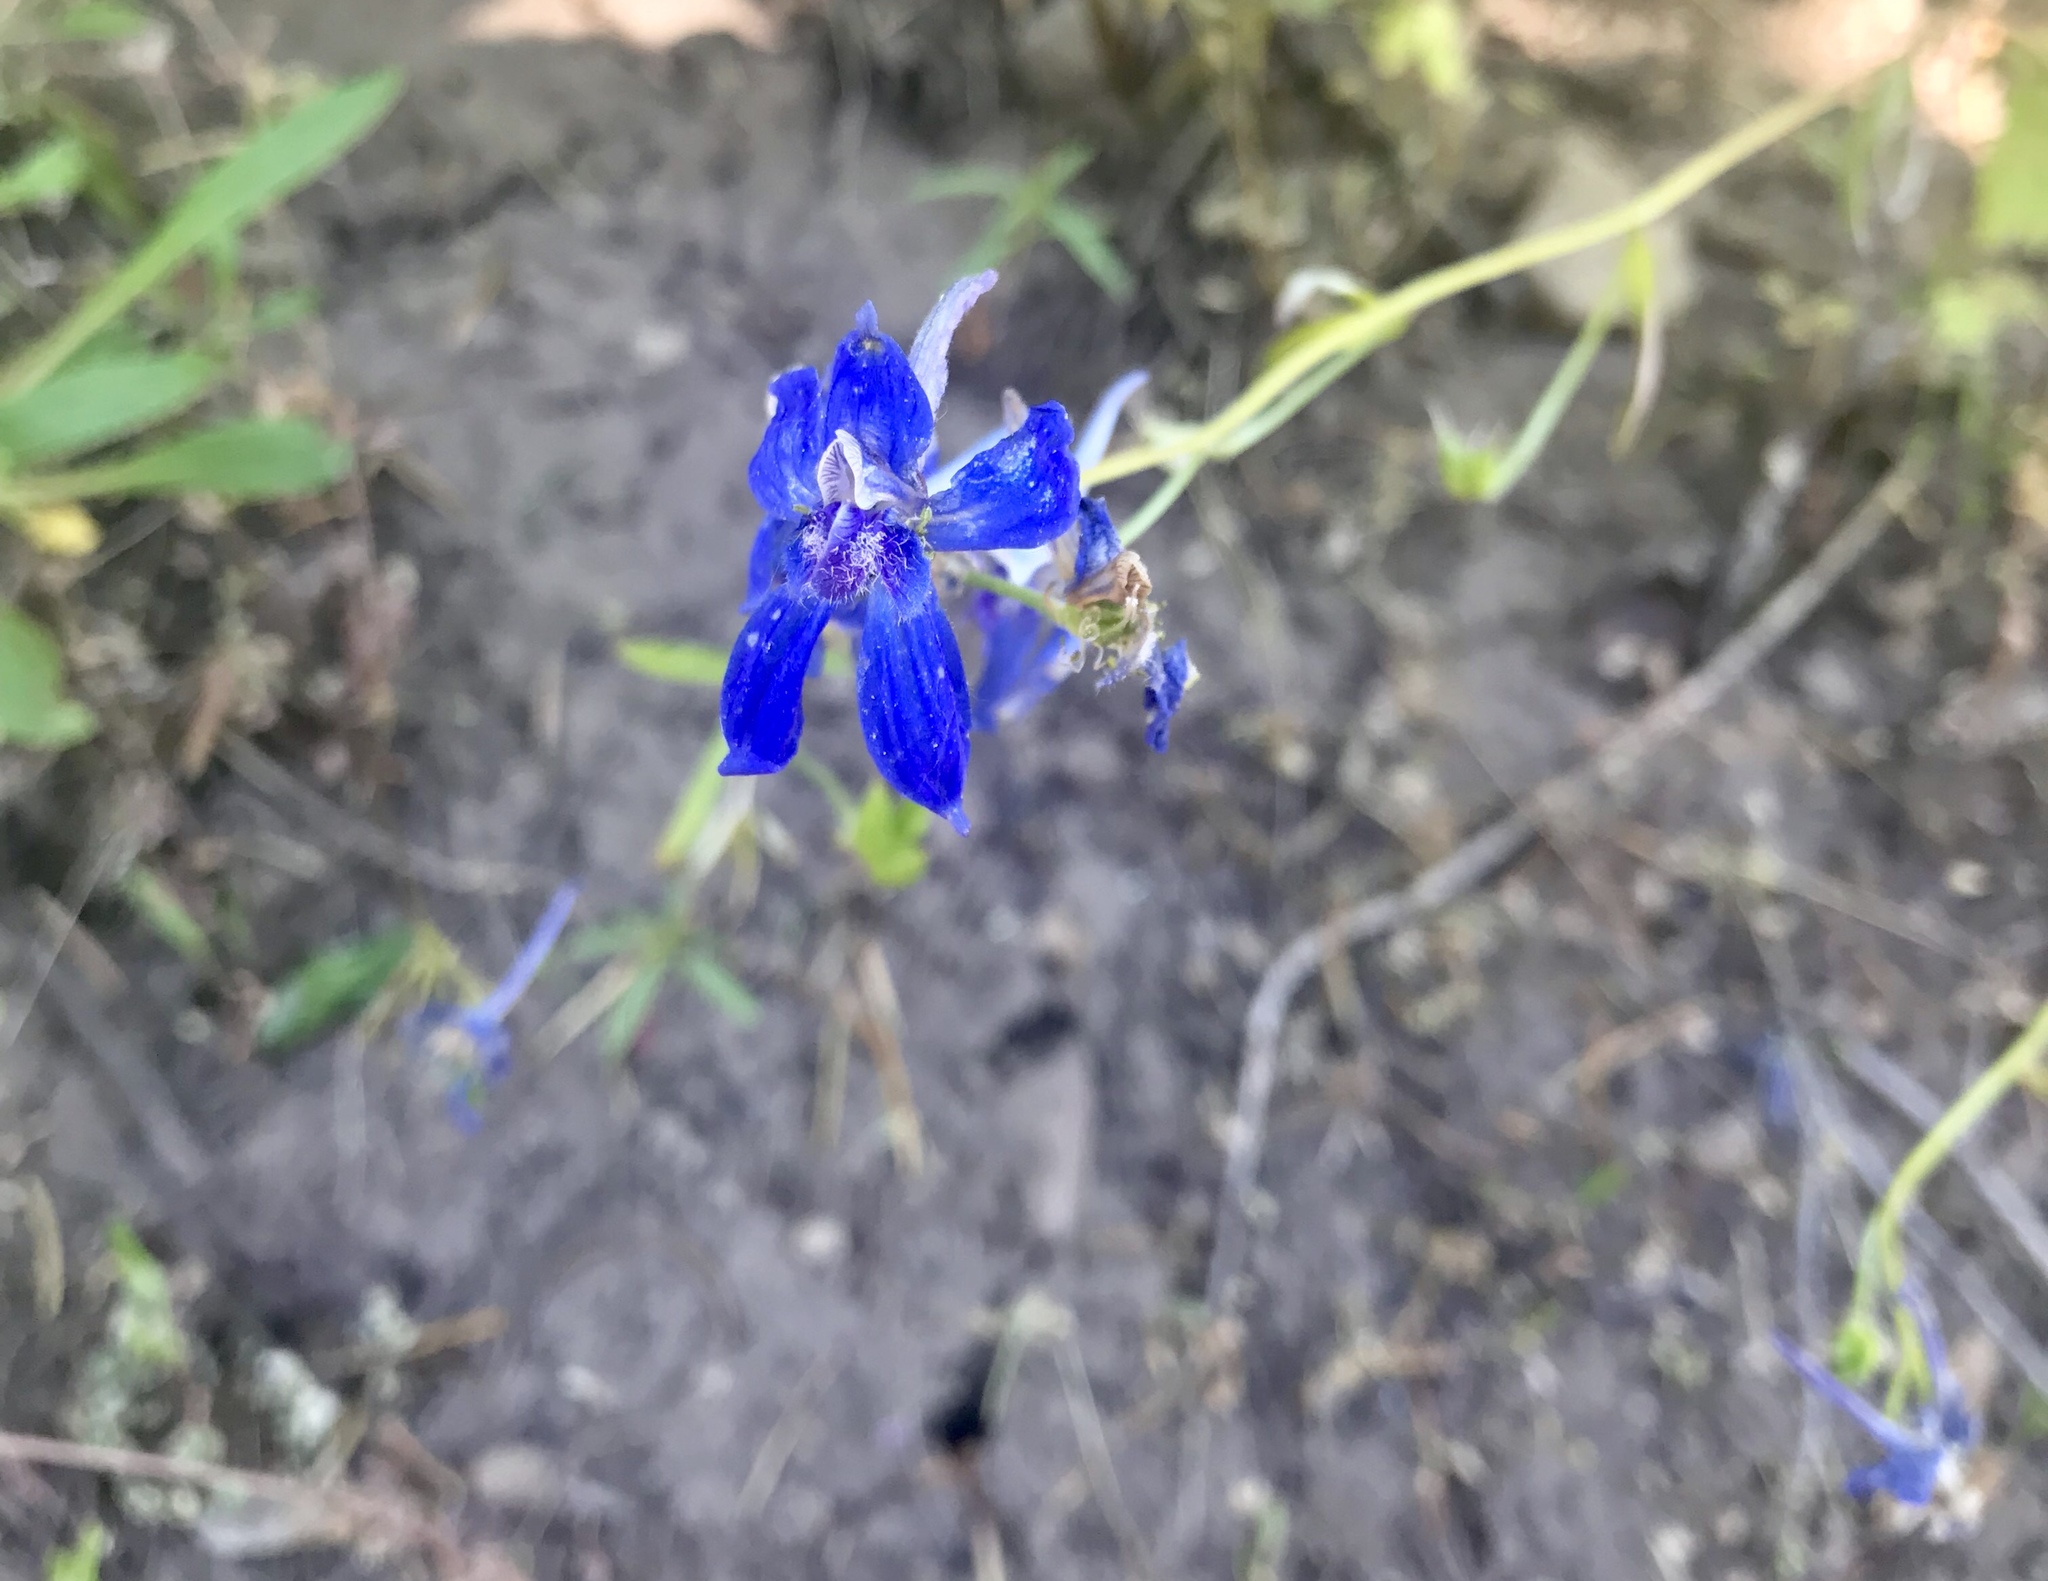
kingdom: Plantae
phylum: Tracheophyta
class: Magnoliopsida
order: Ranunculales
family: Ranunculaceae
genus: Delphinium
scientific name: Delphinium nuttallianum
